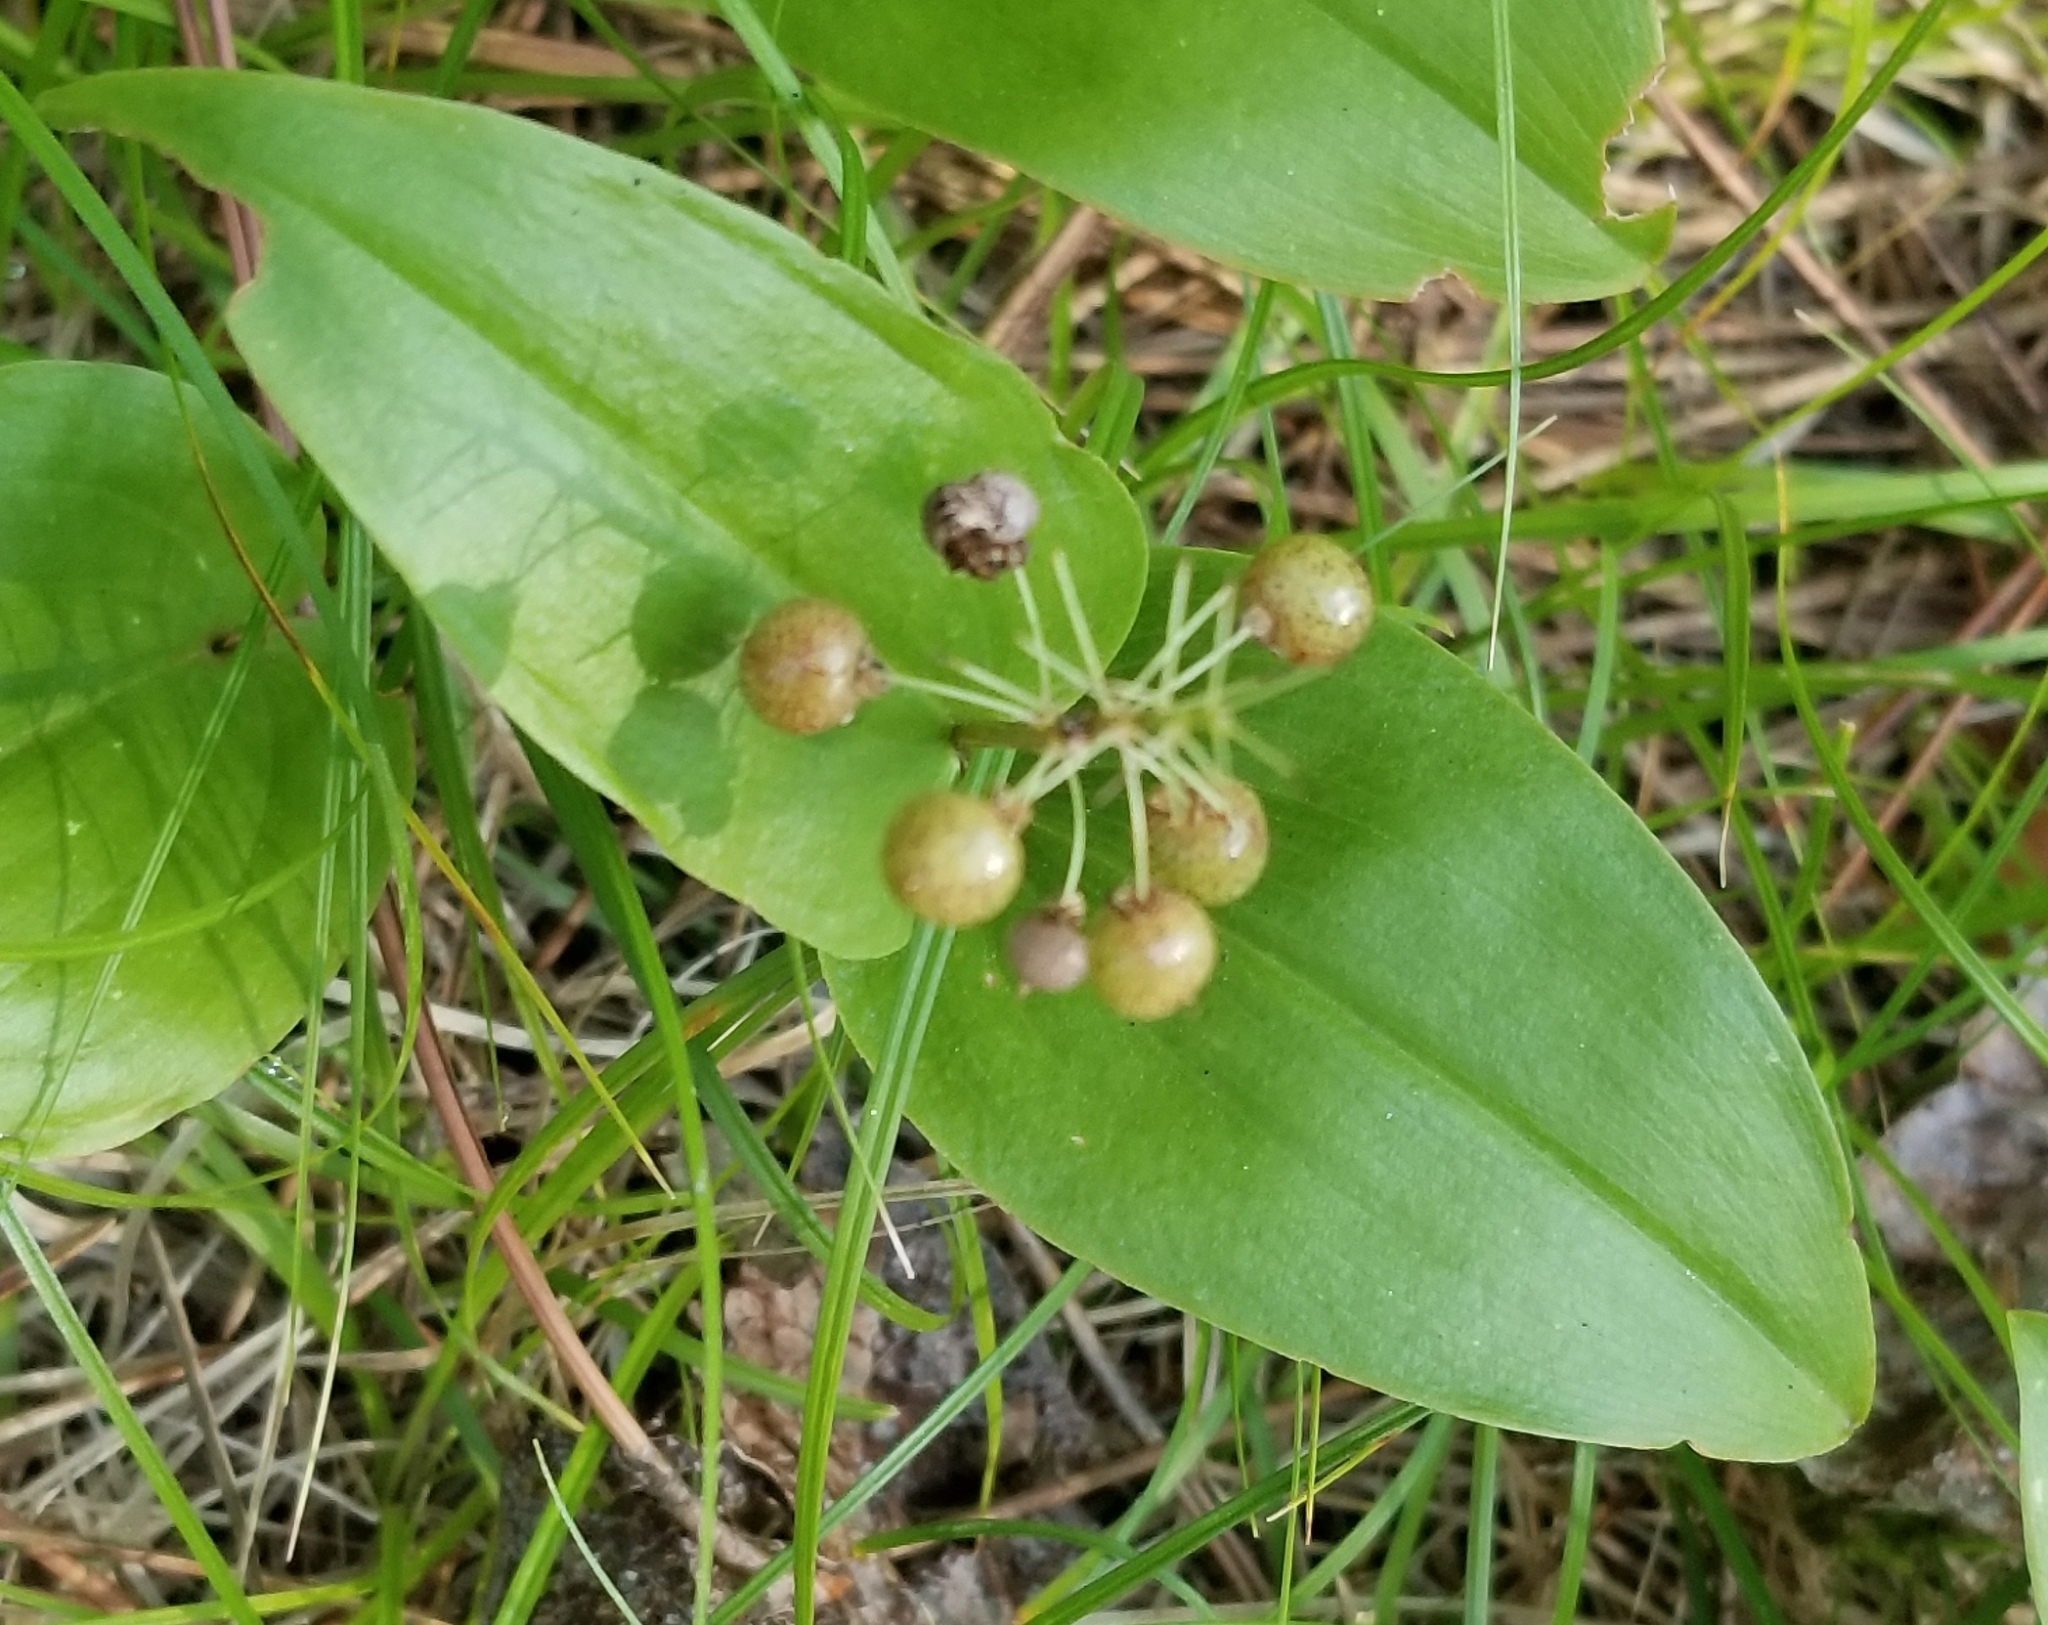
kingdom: Plantae
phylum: Tracheophyta
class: Liliopsida
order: Asparagales
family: Asparagaceae
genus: Maianthemum
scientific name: Maianthemum canadense
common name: False lily-of-the-valley
